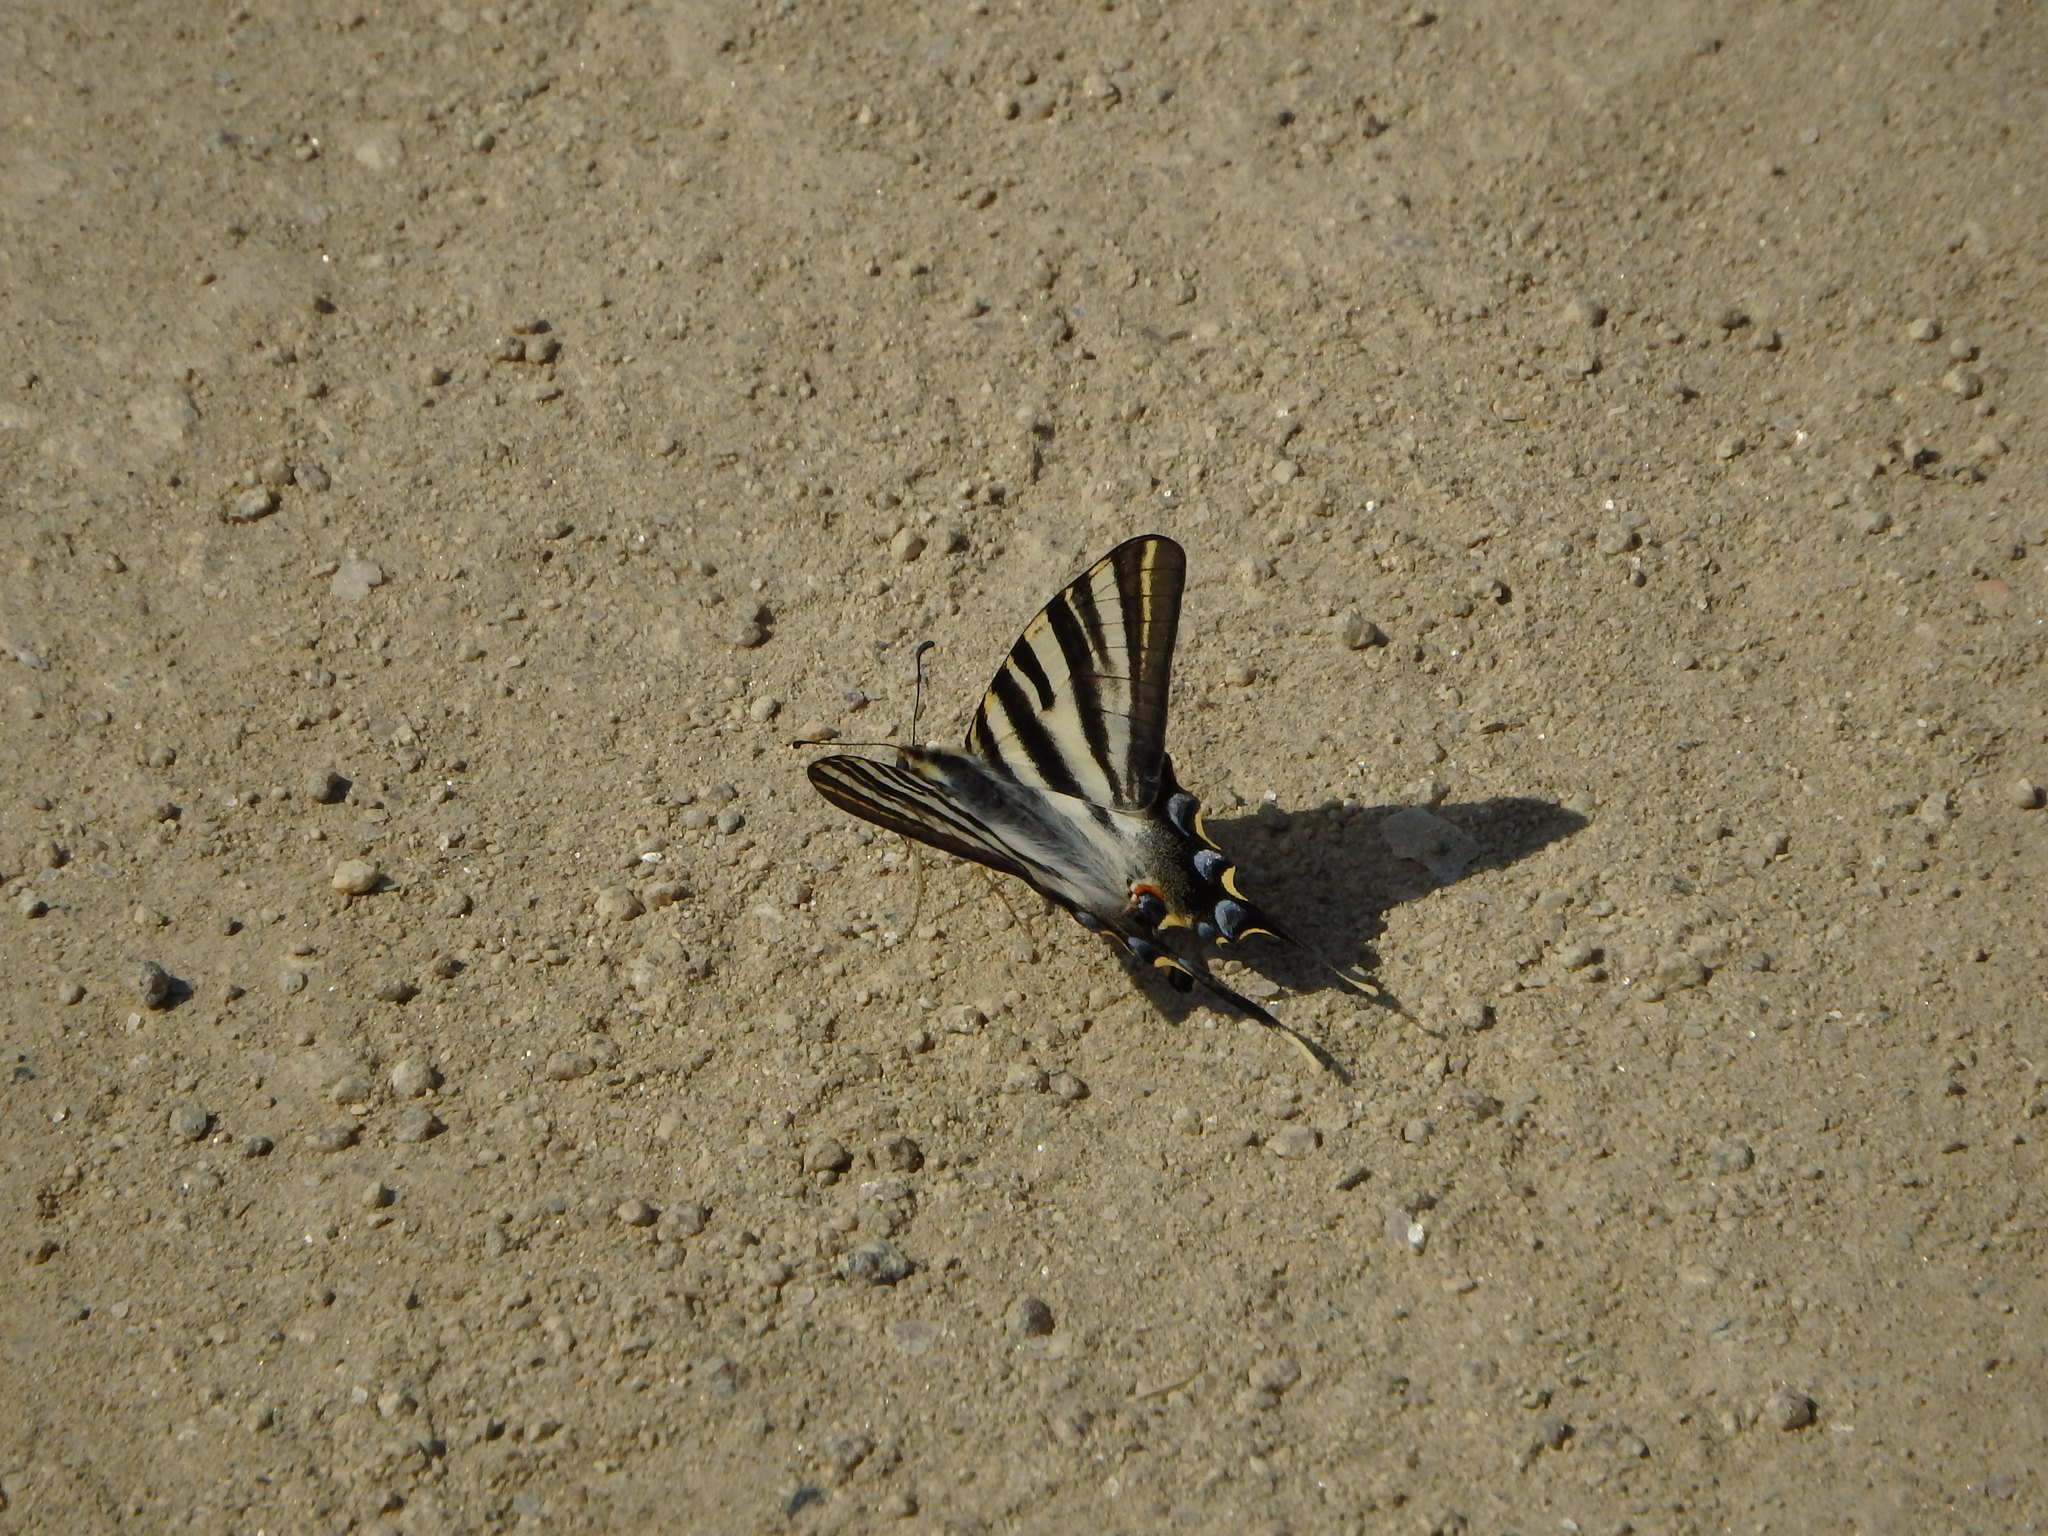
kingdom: Animalia
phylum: Arthropoda
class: Insecta
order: Lepidoptera
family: Papilionidae
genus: Iphiclides
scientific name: Iphiclides feisthamelii
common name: Iberian scarce swallowtail
